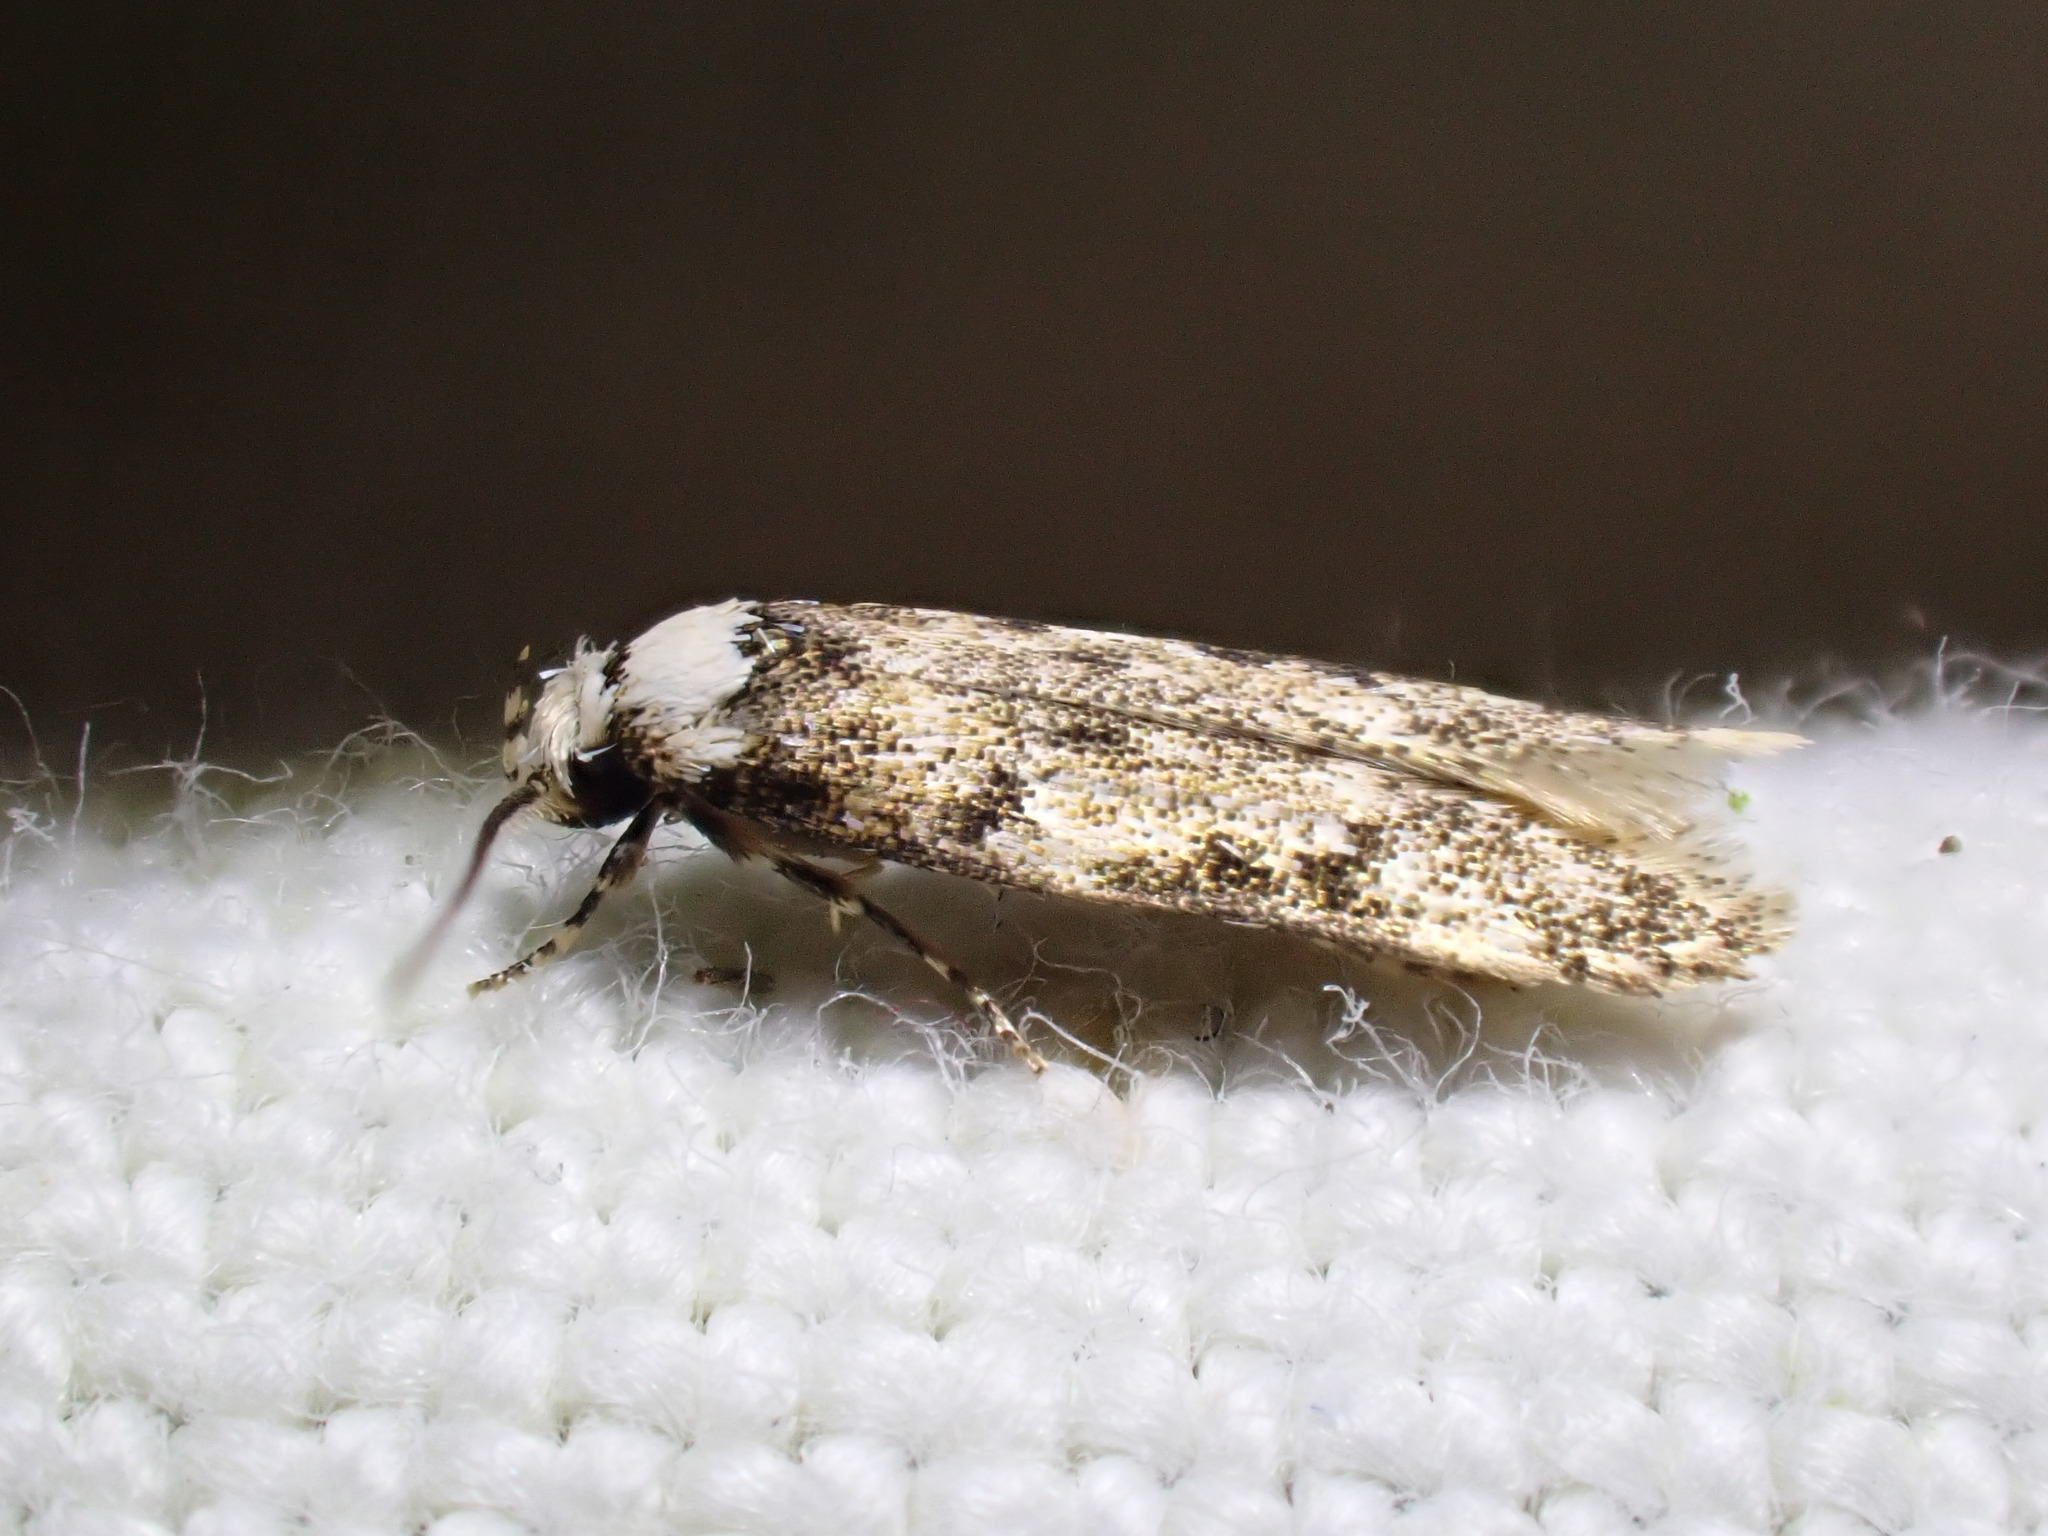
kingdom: Animalia
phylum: Arthropoda
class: Insecta
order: Lepidoptera
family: Oecophoridae
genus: Endrosis
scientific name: Endrosis sarcitrella
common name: White-shouldered house moth
